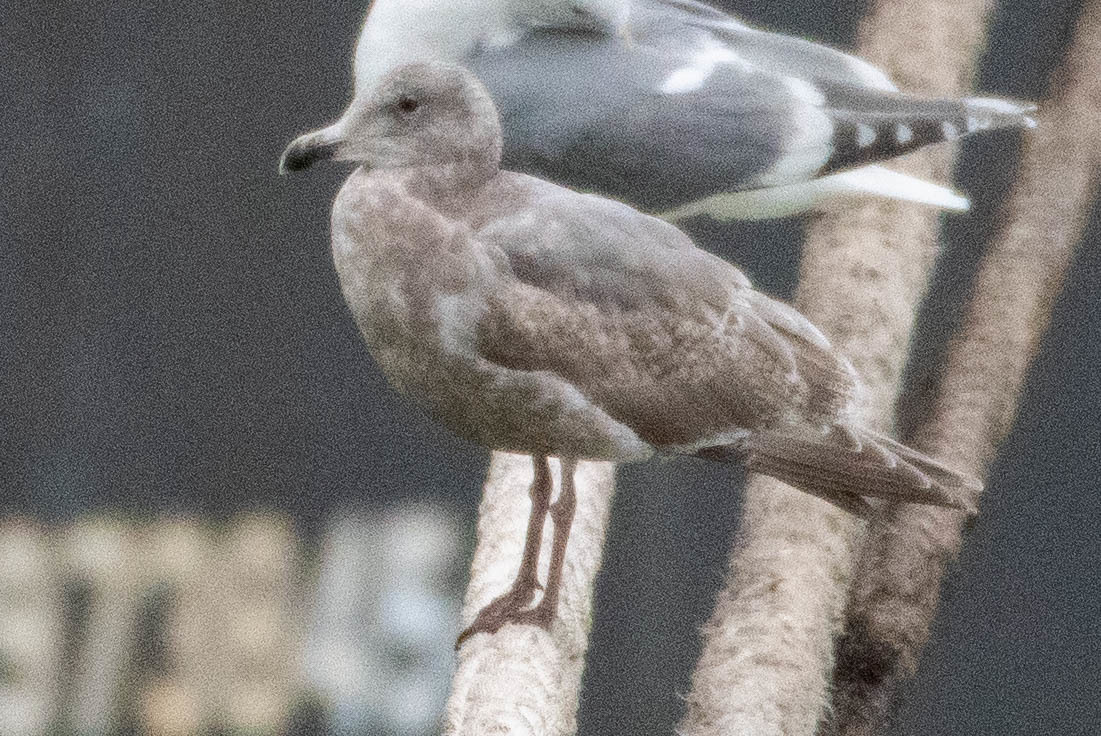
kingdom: Animalia
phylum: Chordata
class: Aves
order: Charadriiformes
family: Laridae
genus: Larus
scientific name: Larus
